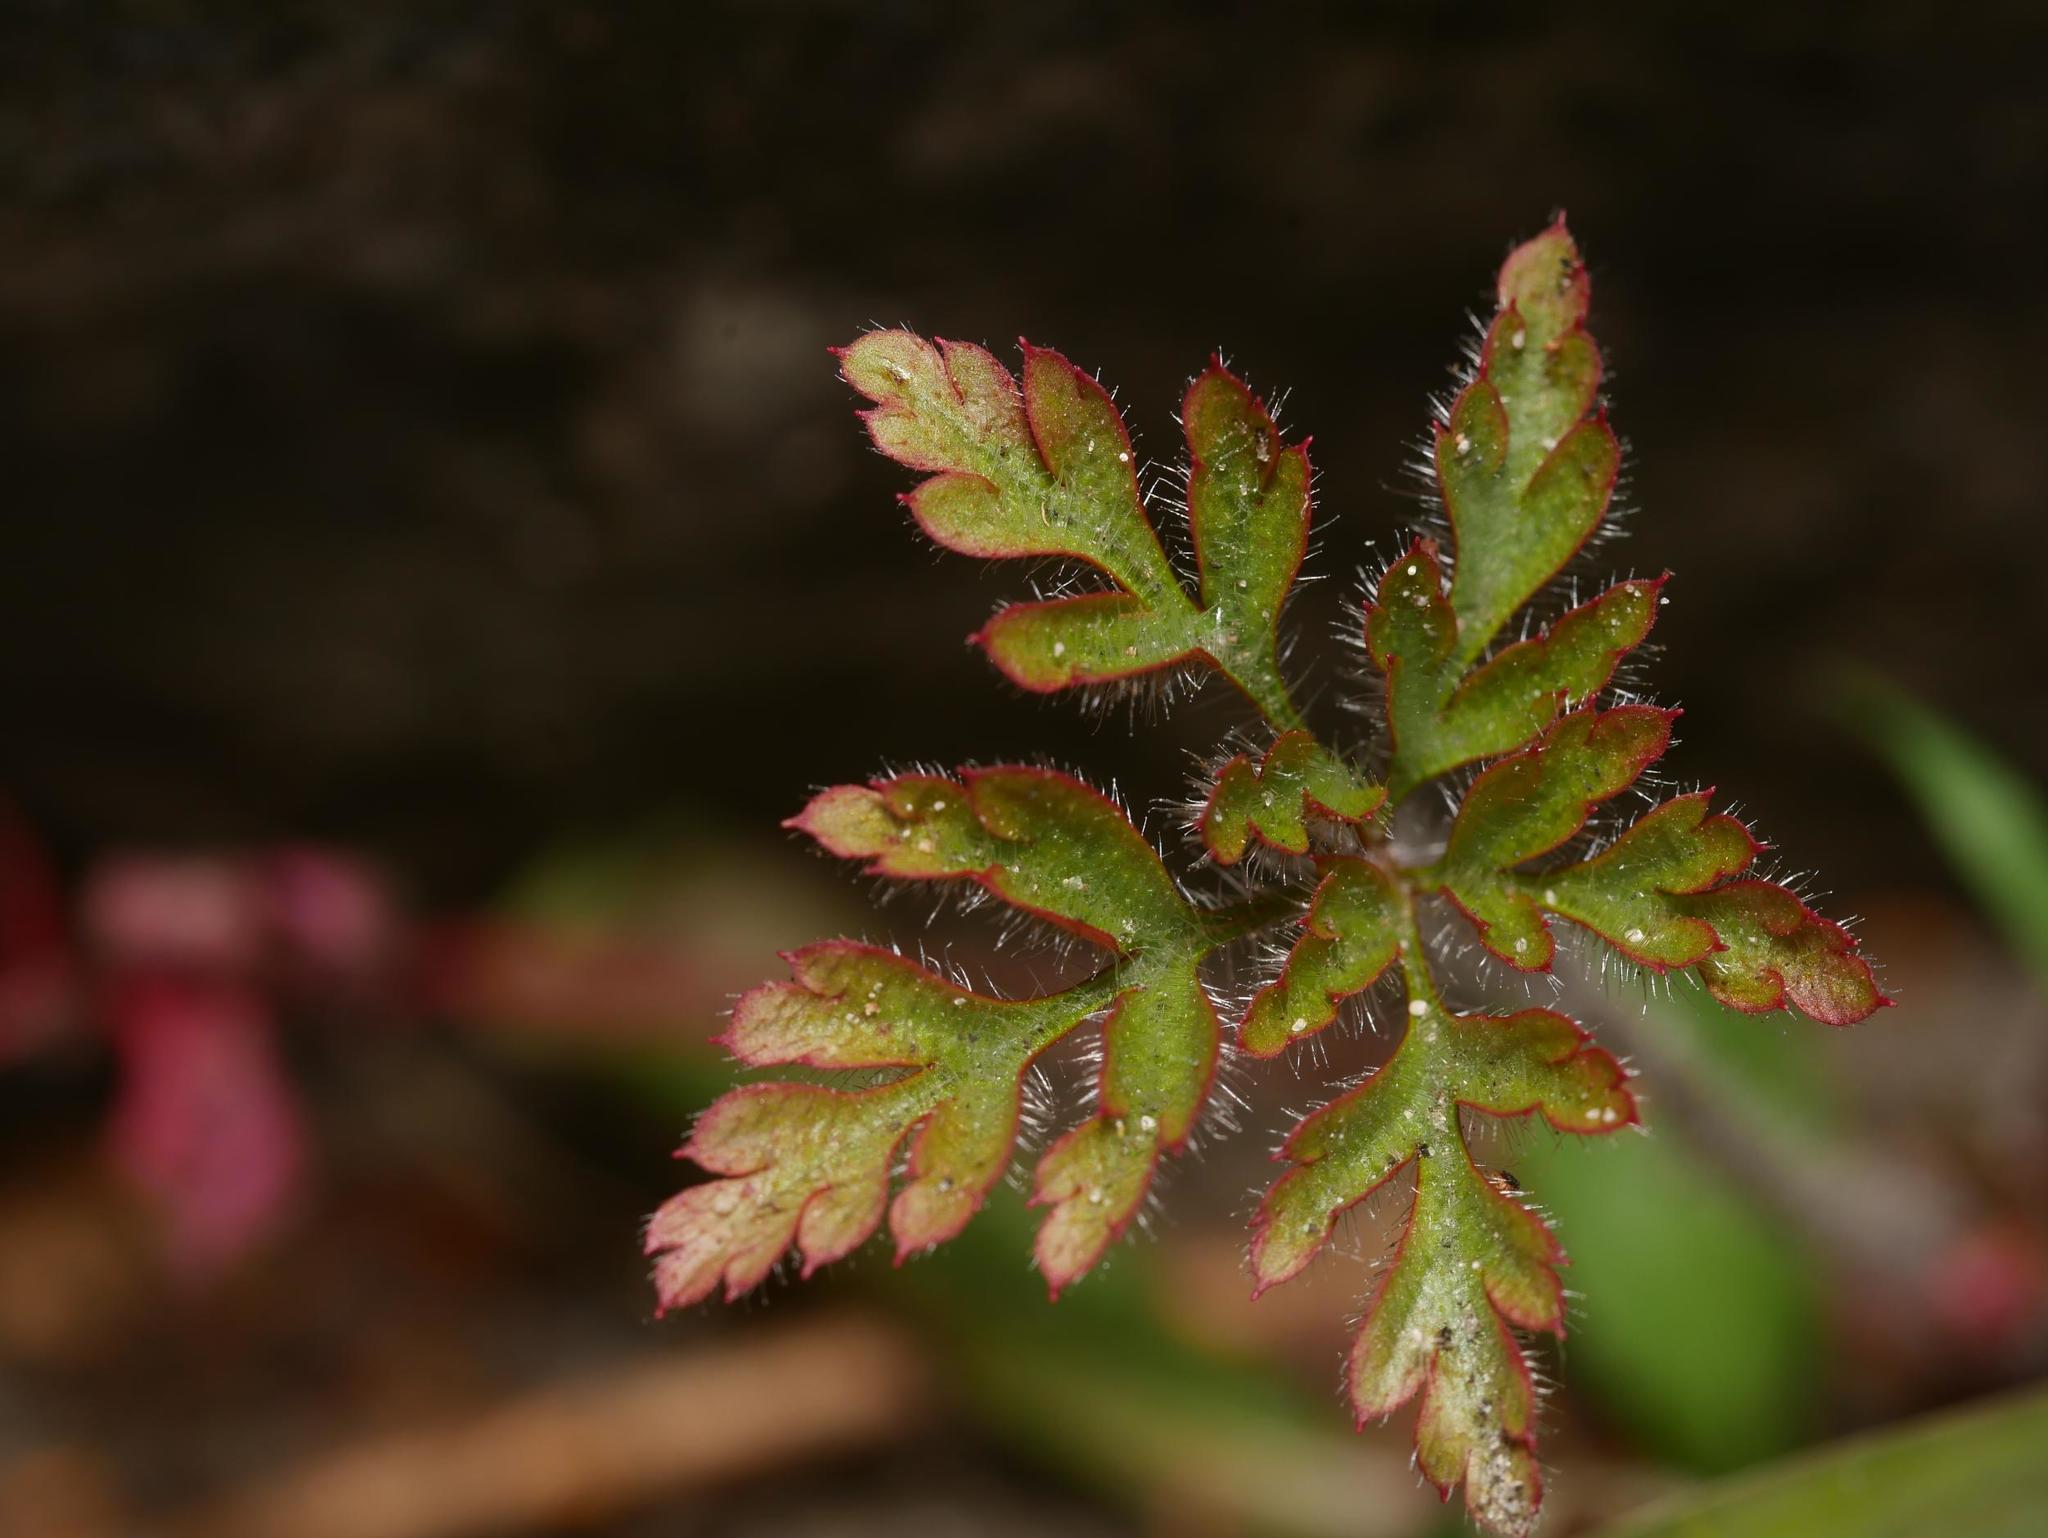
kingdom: Plantae
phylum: Tracheophyta
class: Magnoliopsida
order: Geraniales
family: Geraniaceae
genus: Geranium
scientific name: Geranium robertianum
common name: Herb-robert
